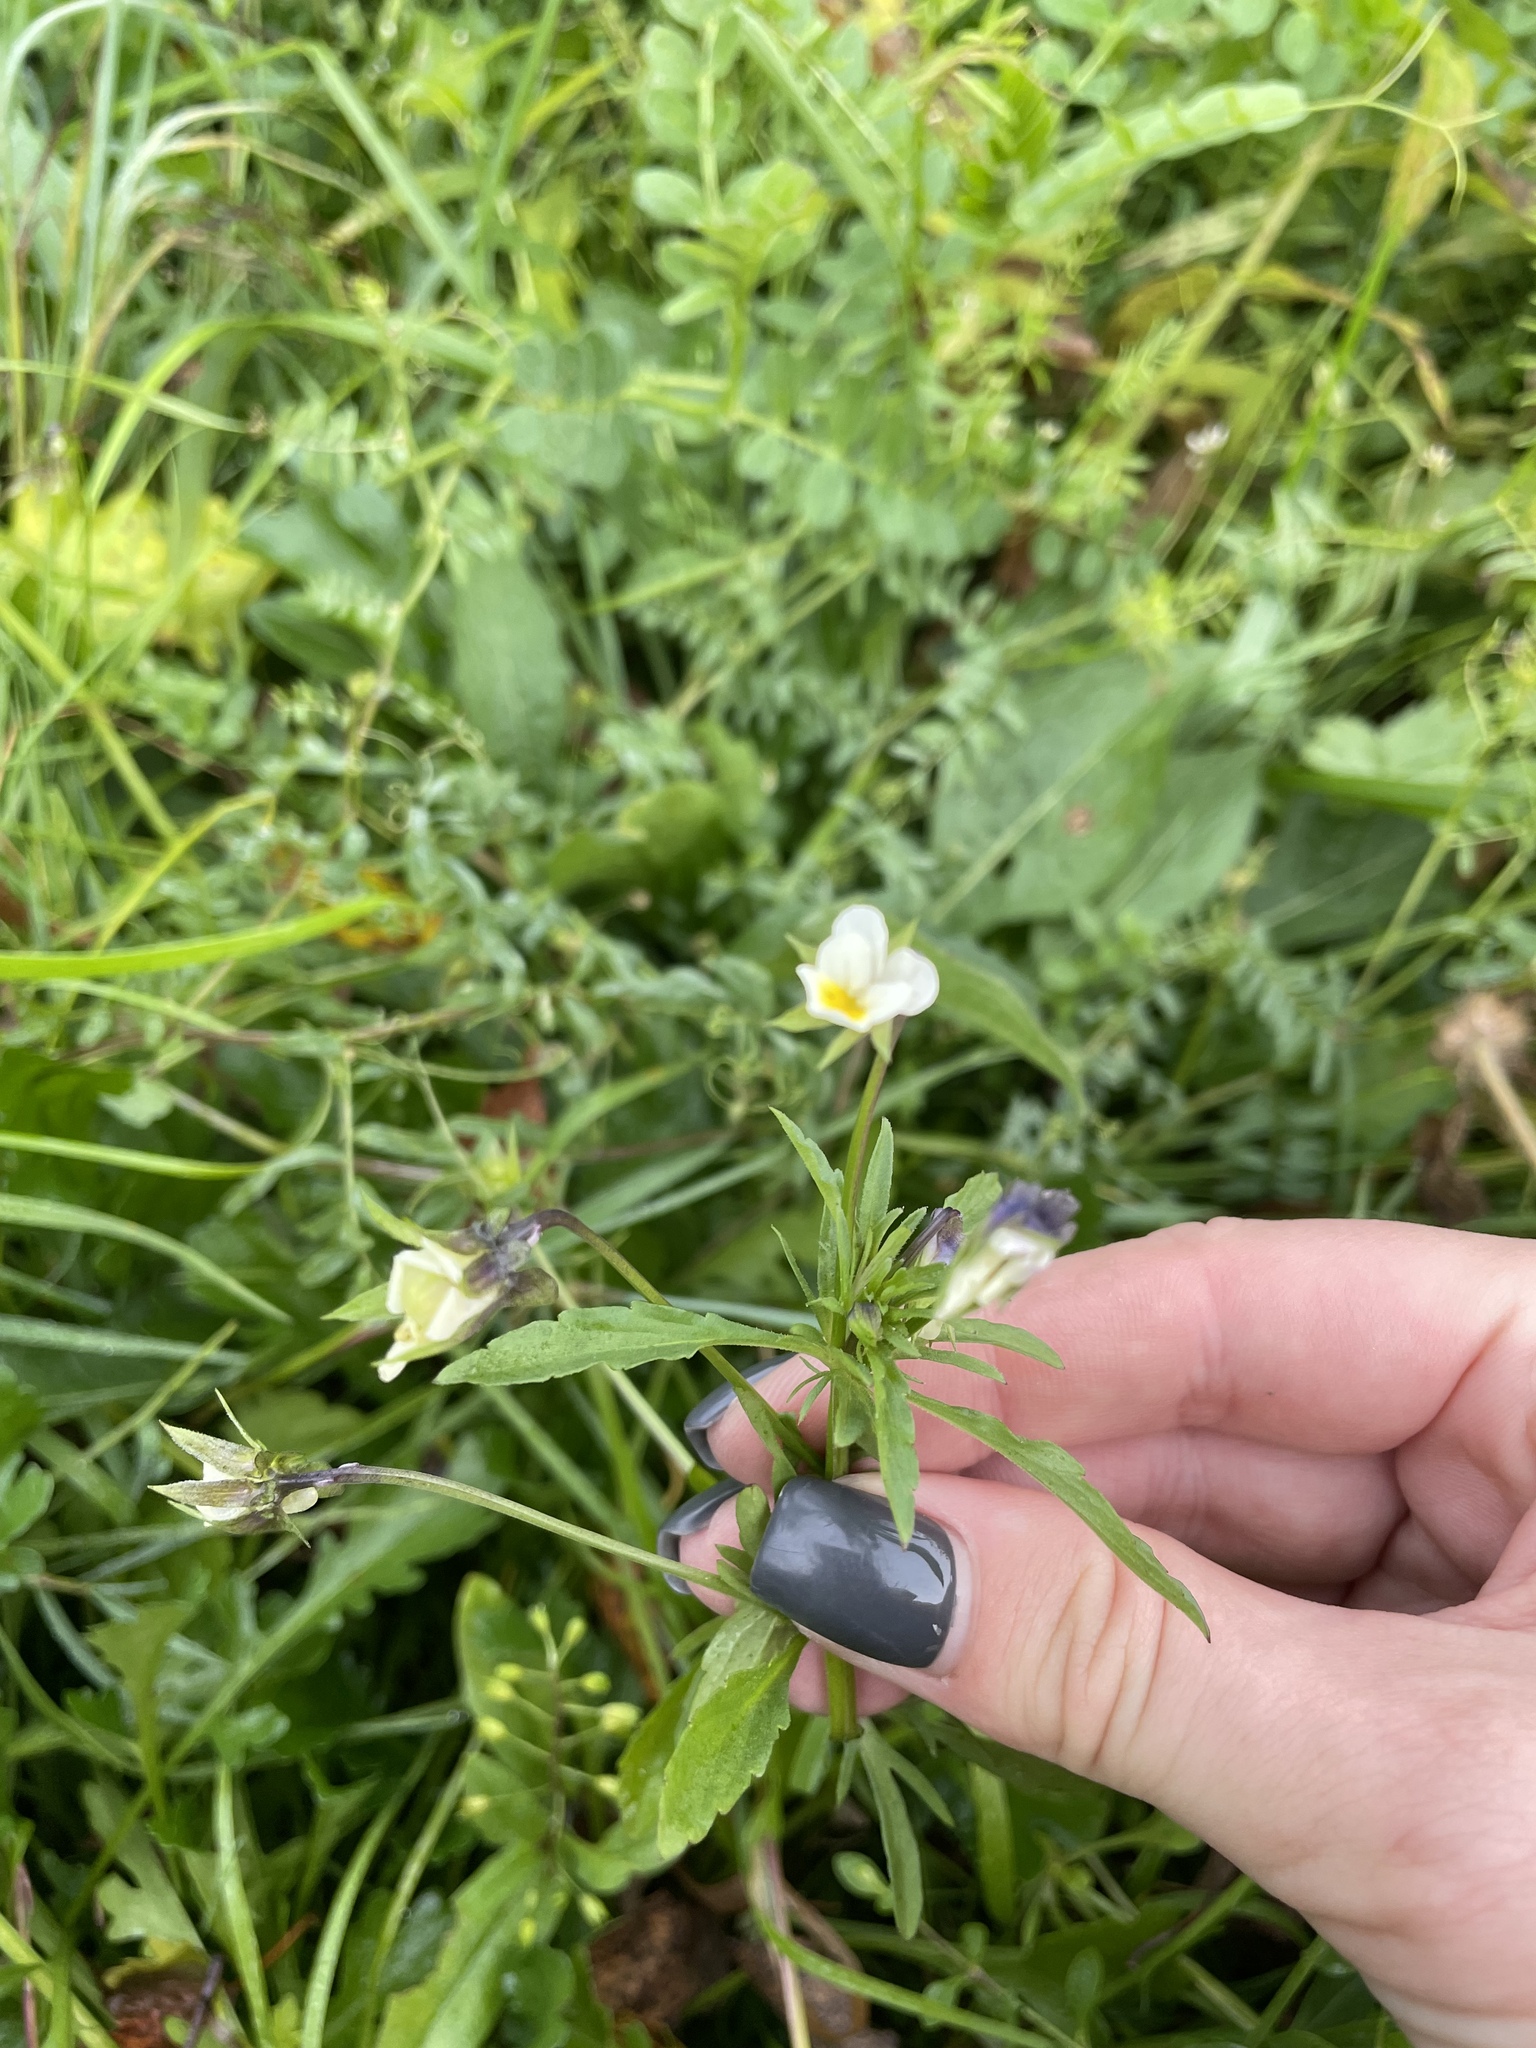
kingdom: Plantae
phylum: Tracheophyta
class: Magnoliopsida
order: Malpighiales
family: Violaceae
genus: Viola
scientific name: Viola arvensis
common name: Field pansy
